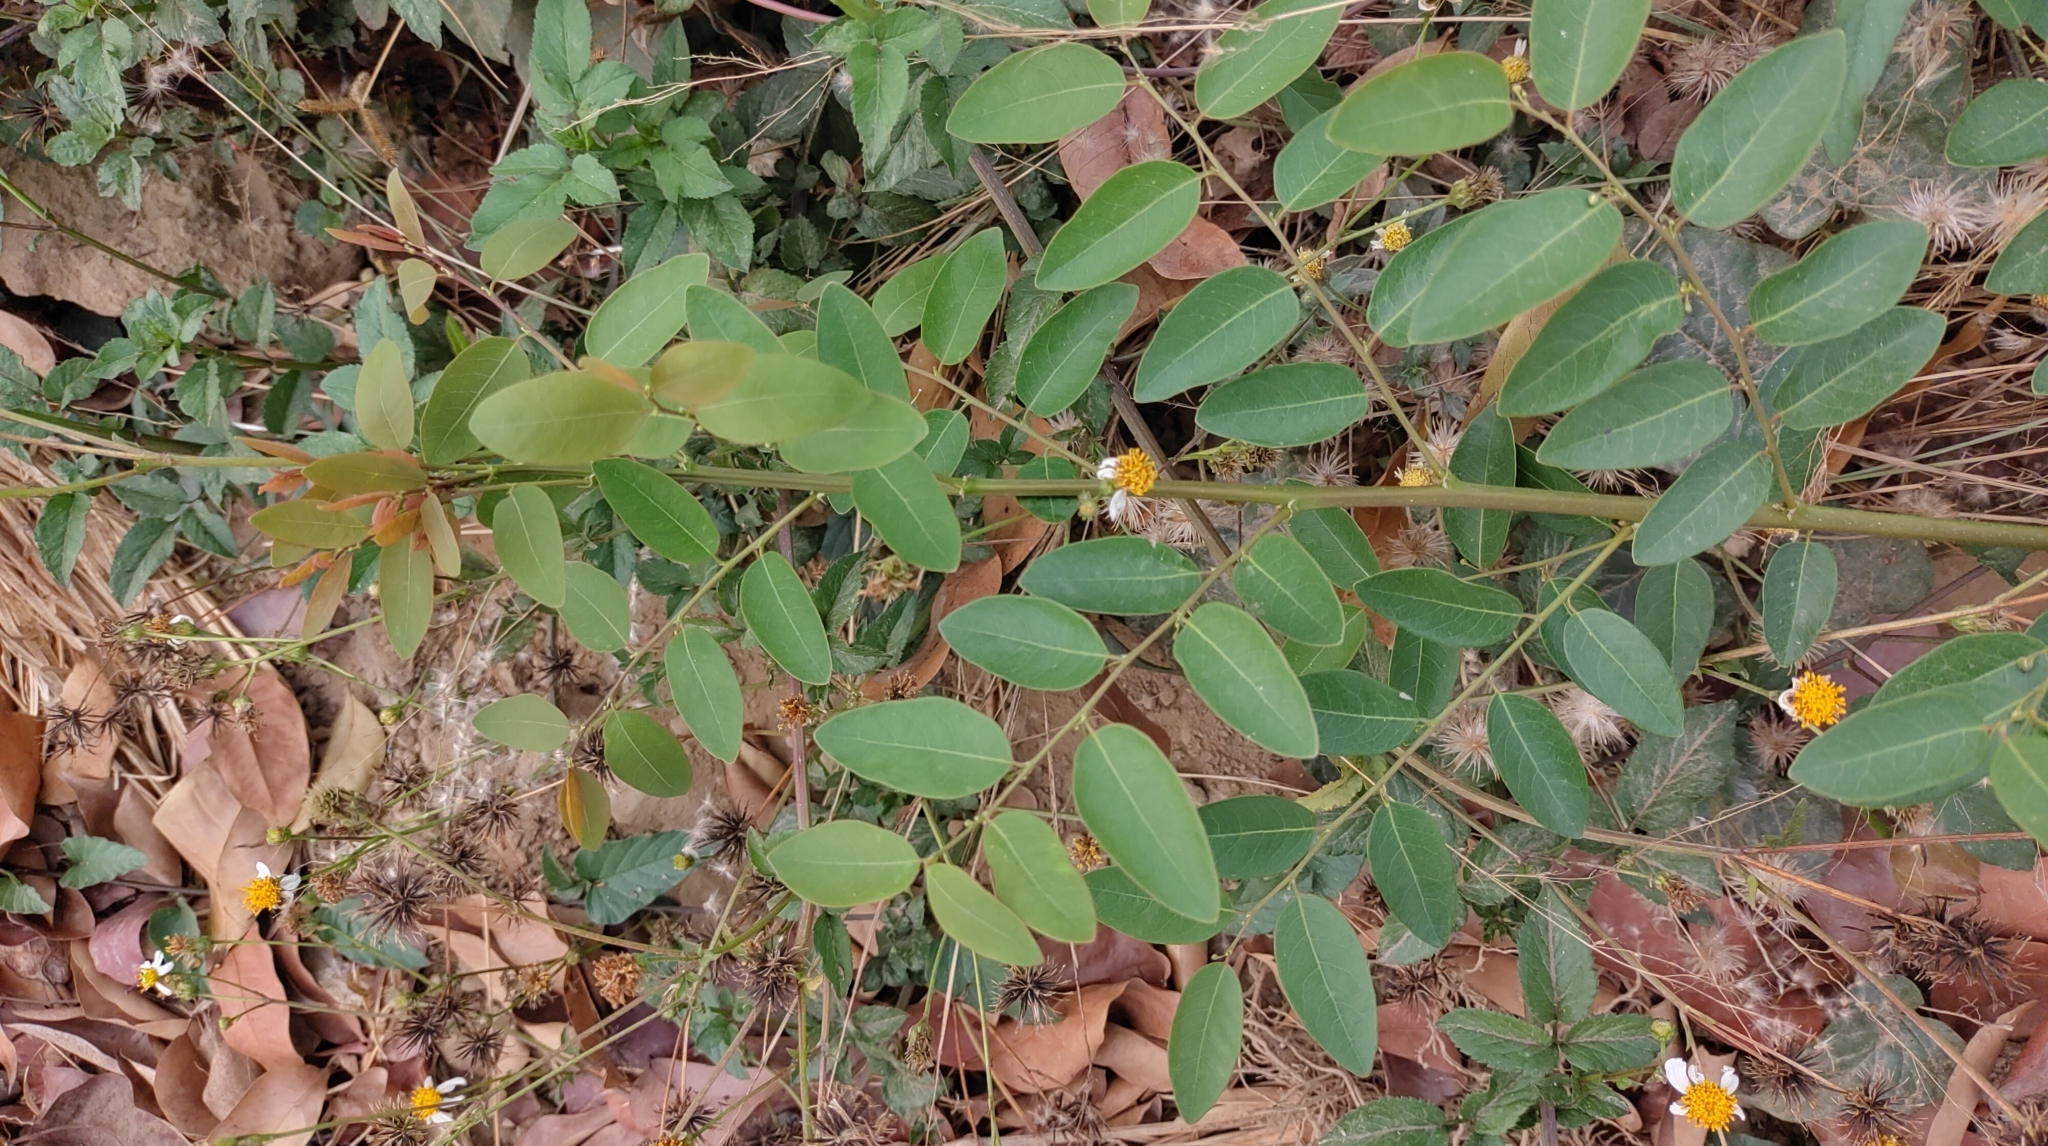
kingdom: Plantae
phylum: Tracheophyta
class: Magnoliopsida
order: Malpighiales
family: Phyllanthaceae
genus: Phyllanthus
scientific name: Phyllanthus reticulatus
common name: Potato bush
